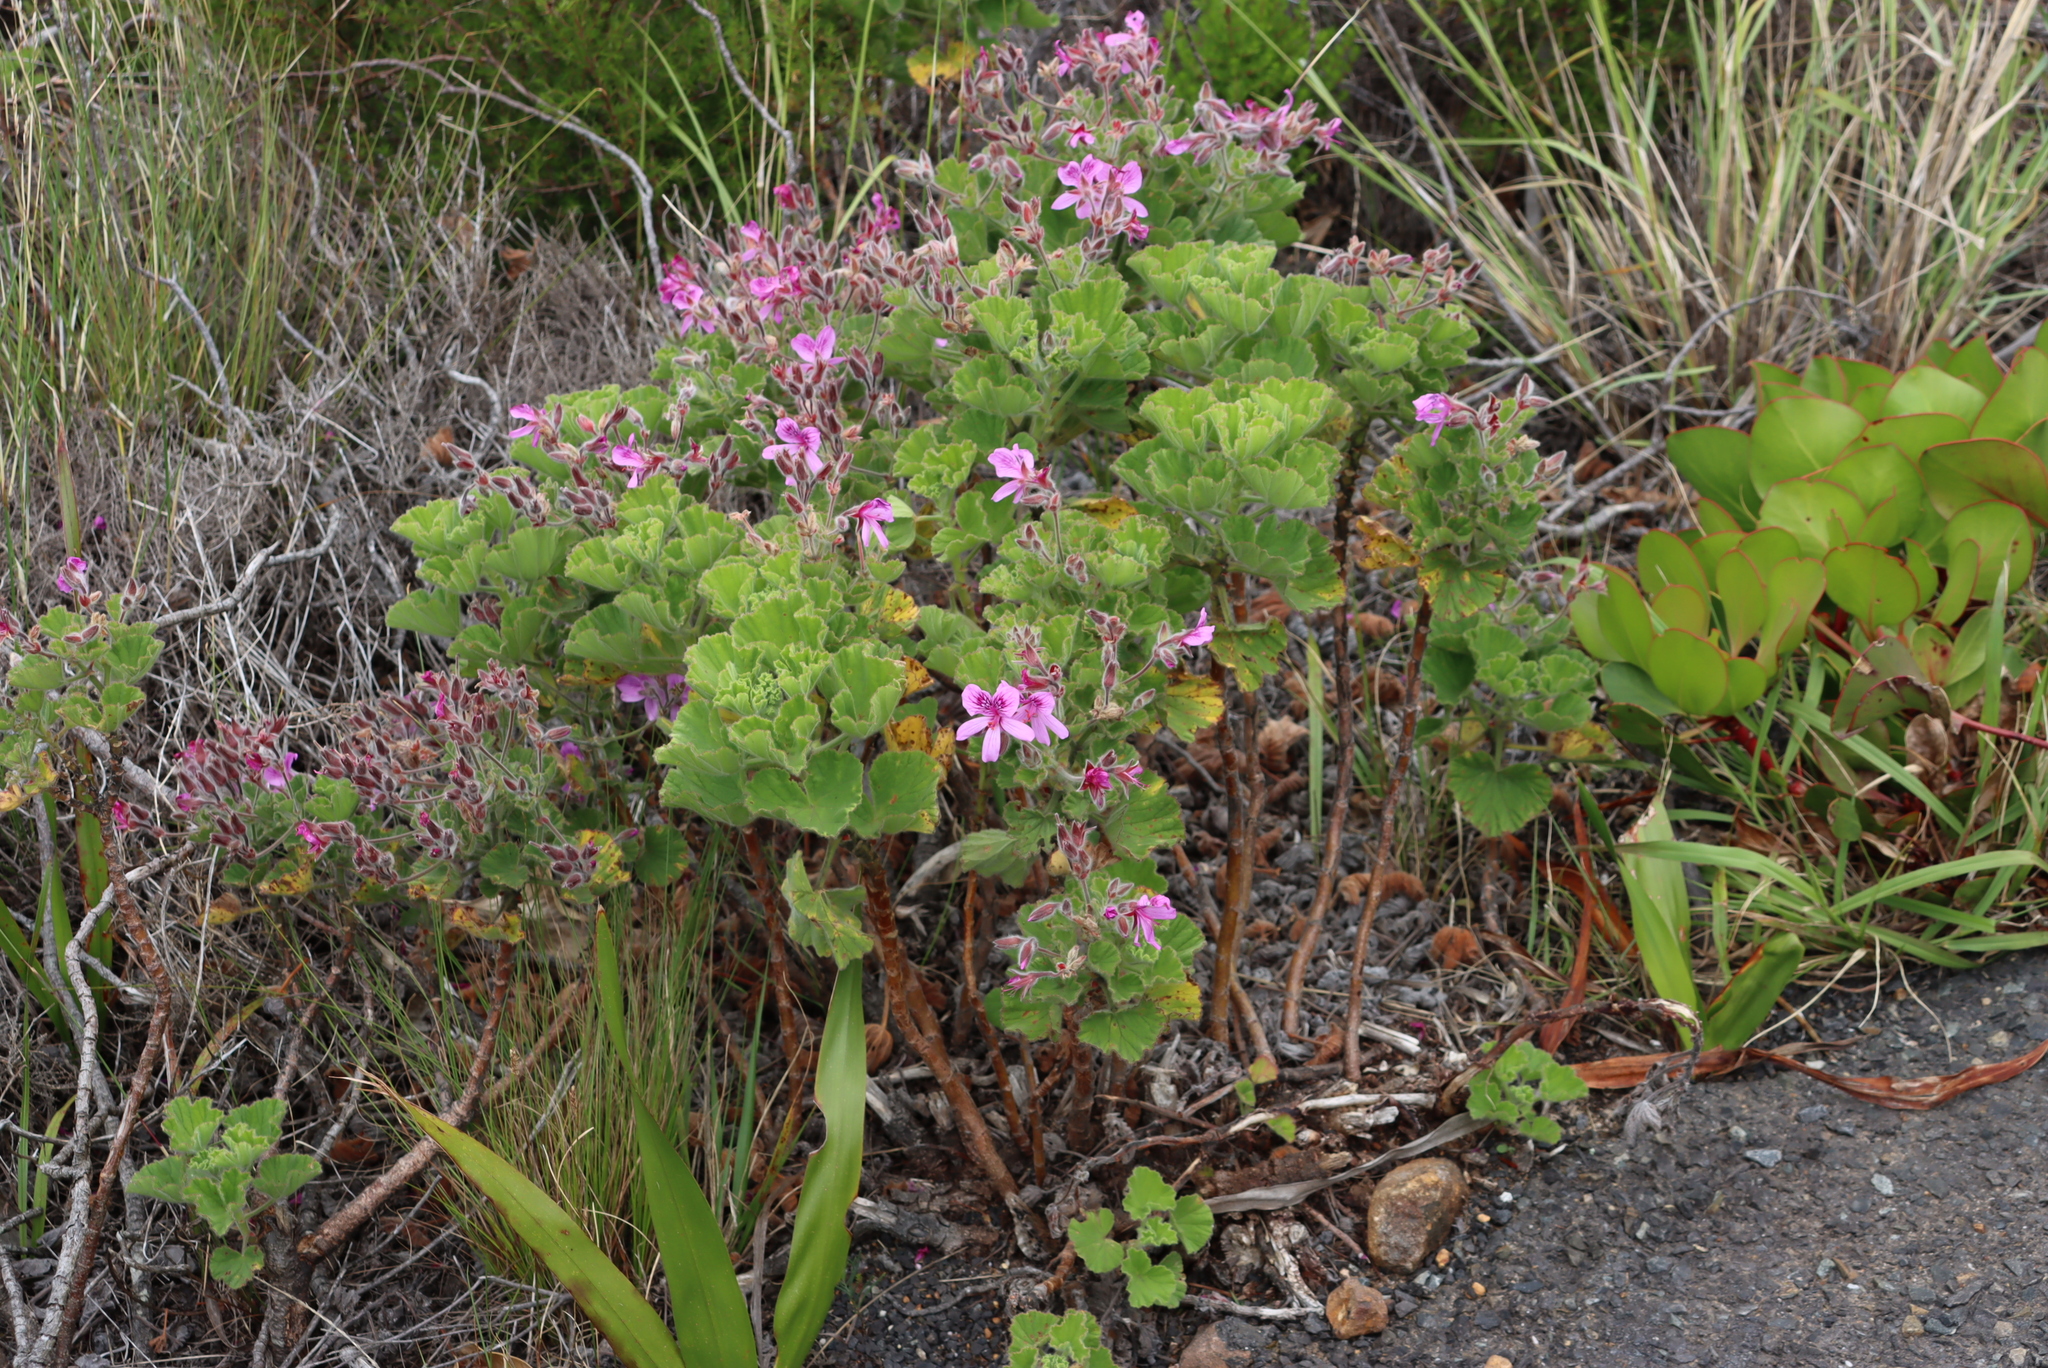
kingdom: Plantae
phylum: Tracheophyta
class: Magnoliopsida
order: Geraniales
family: Geraniaceae
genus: Pelargonium
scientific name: Pelargonium cucullatum
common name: Tree pelargonium
